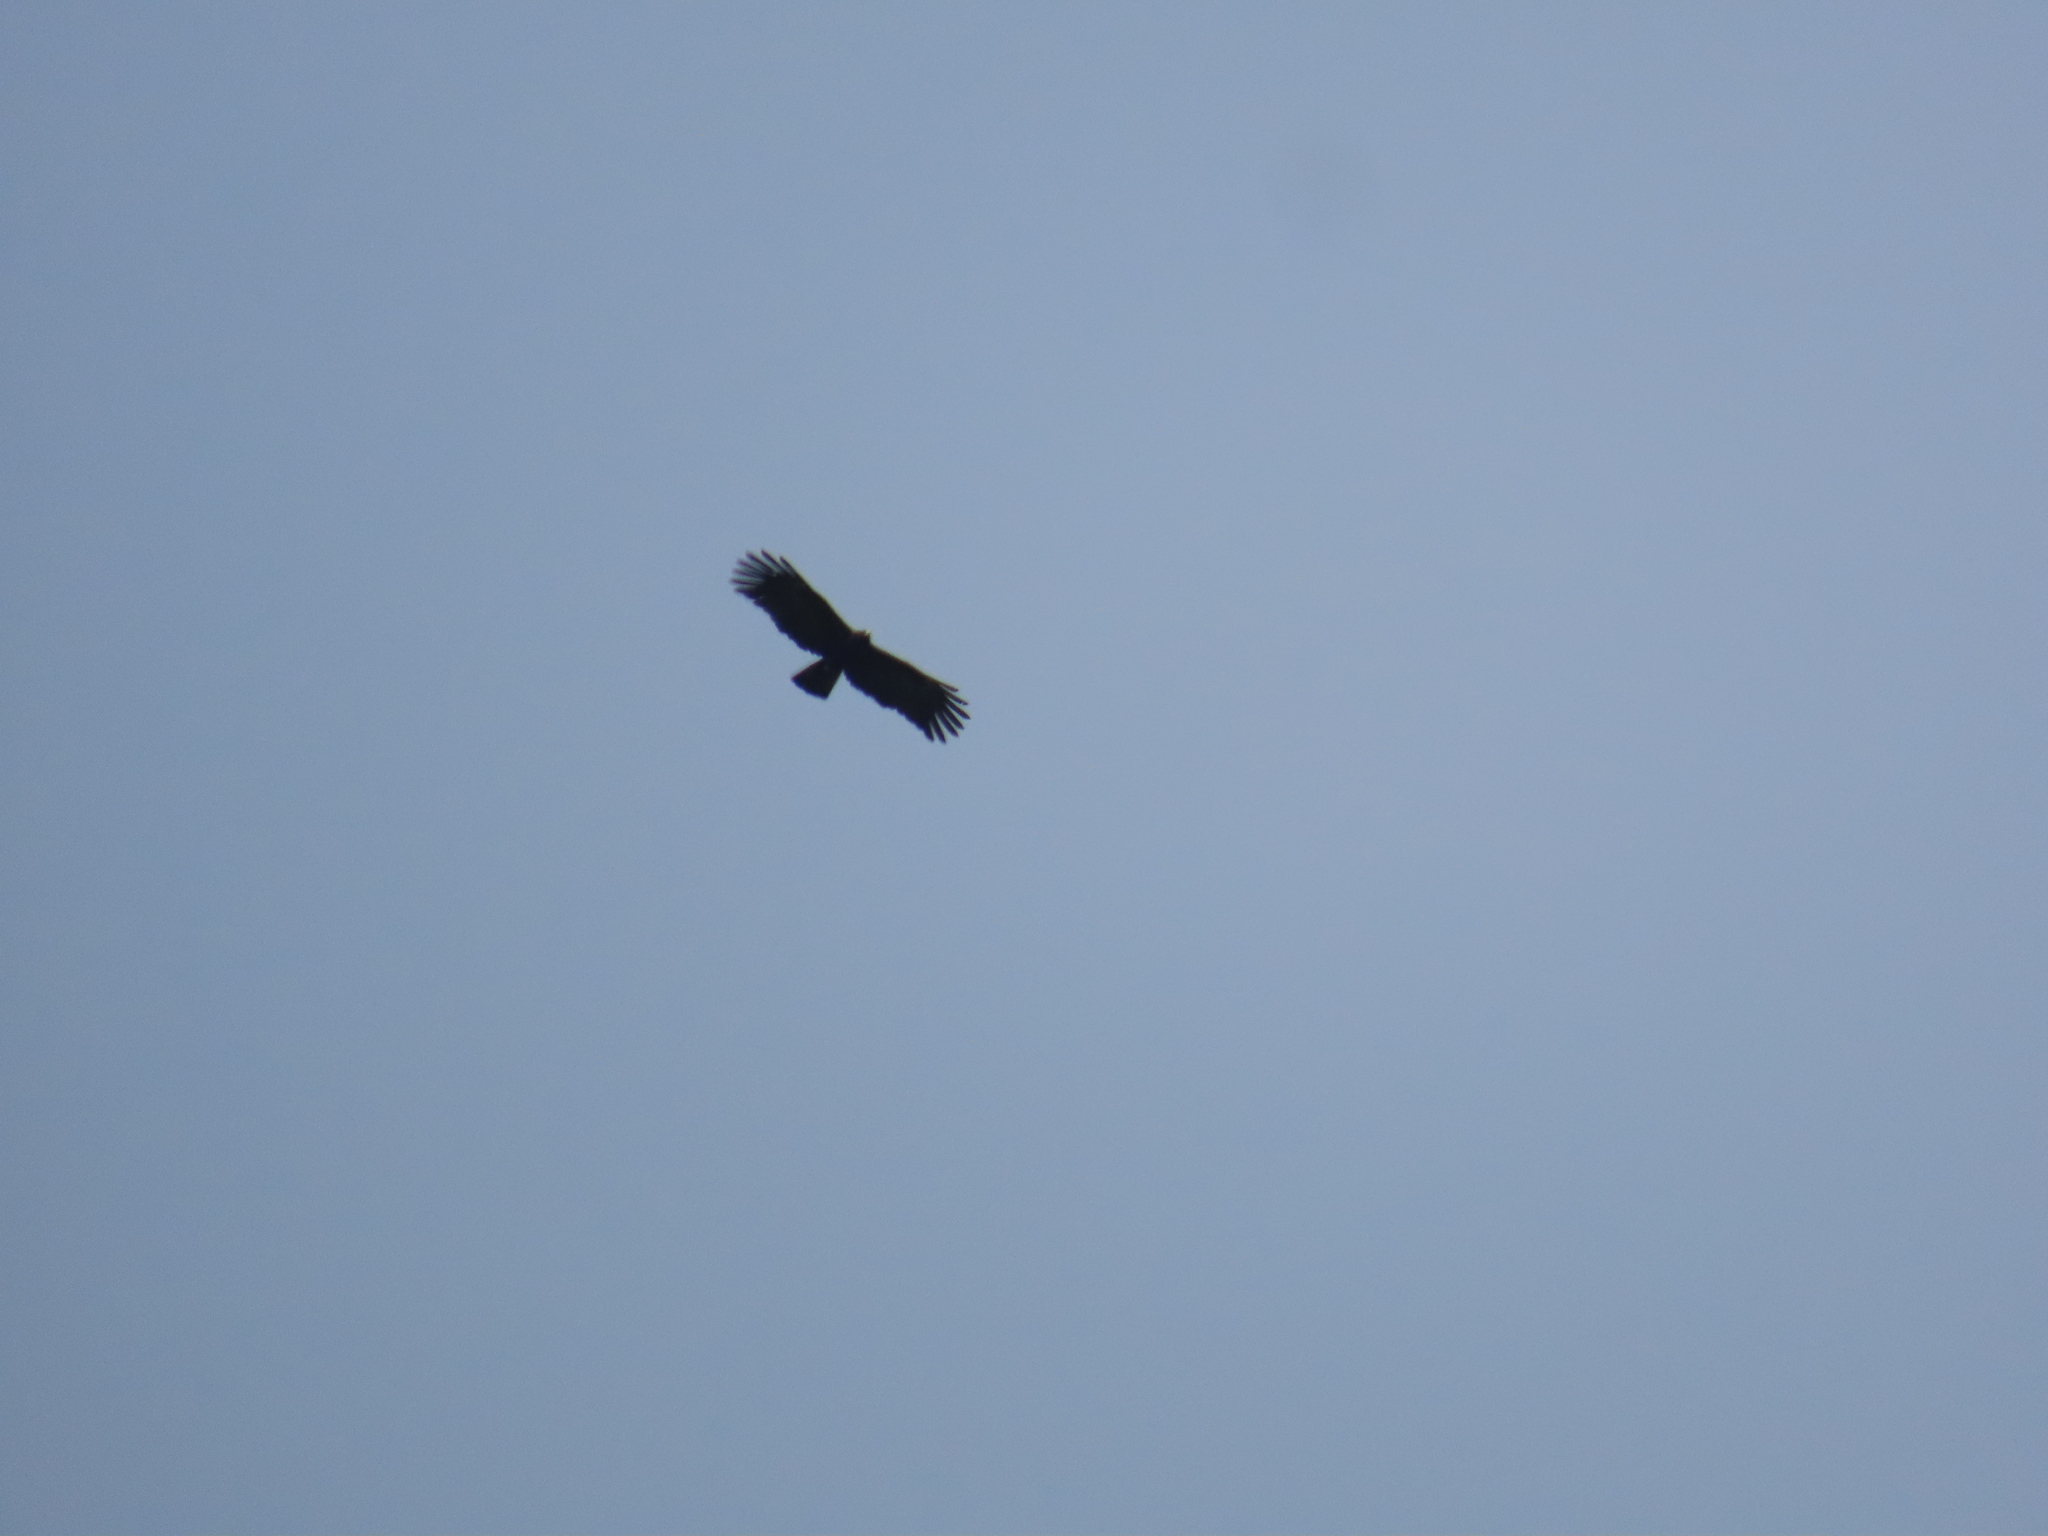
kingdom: Animalia
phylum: Chordata
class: Aves
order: Accipitriformes
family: Accipitridae
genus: Ictinaetus
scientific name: Ictinaetus malayensis
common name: Black eagle
